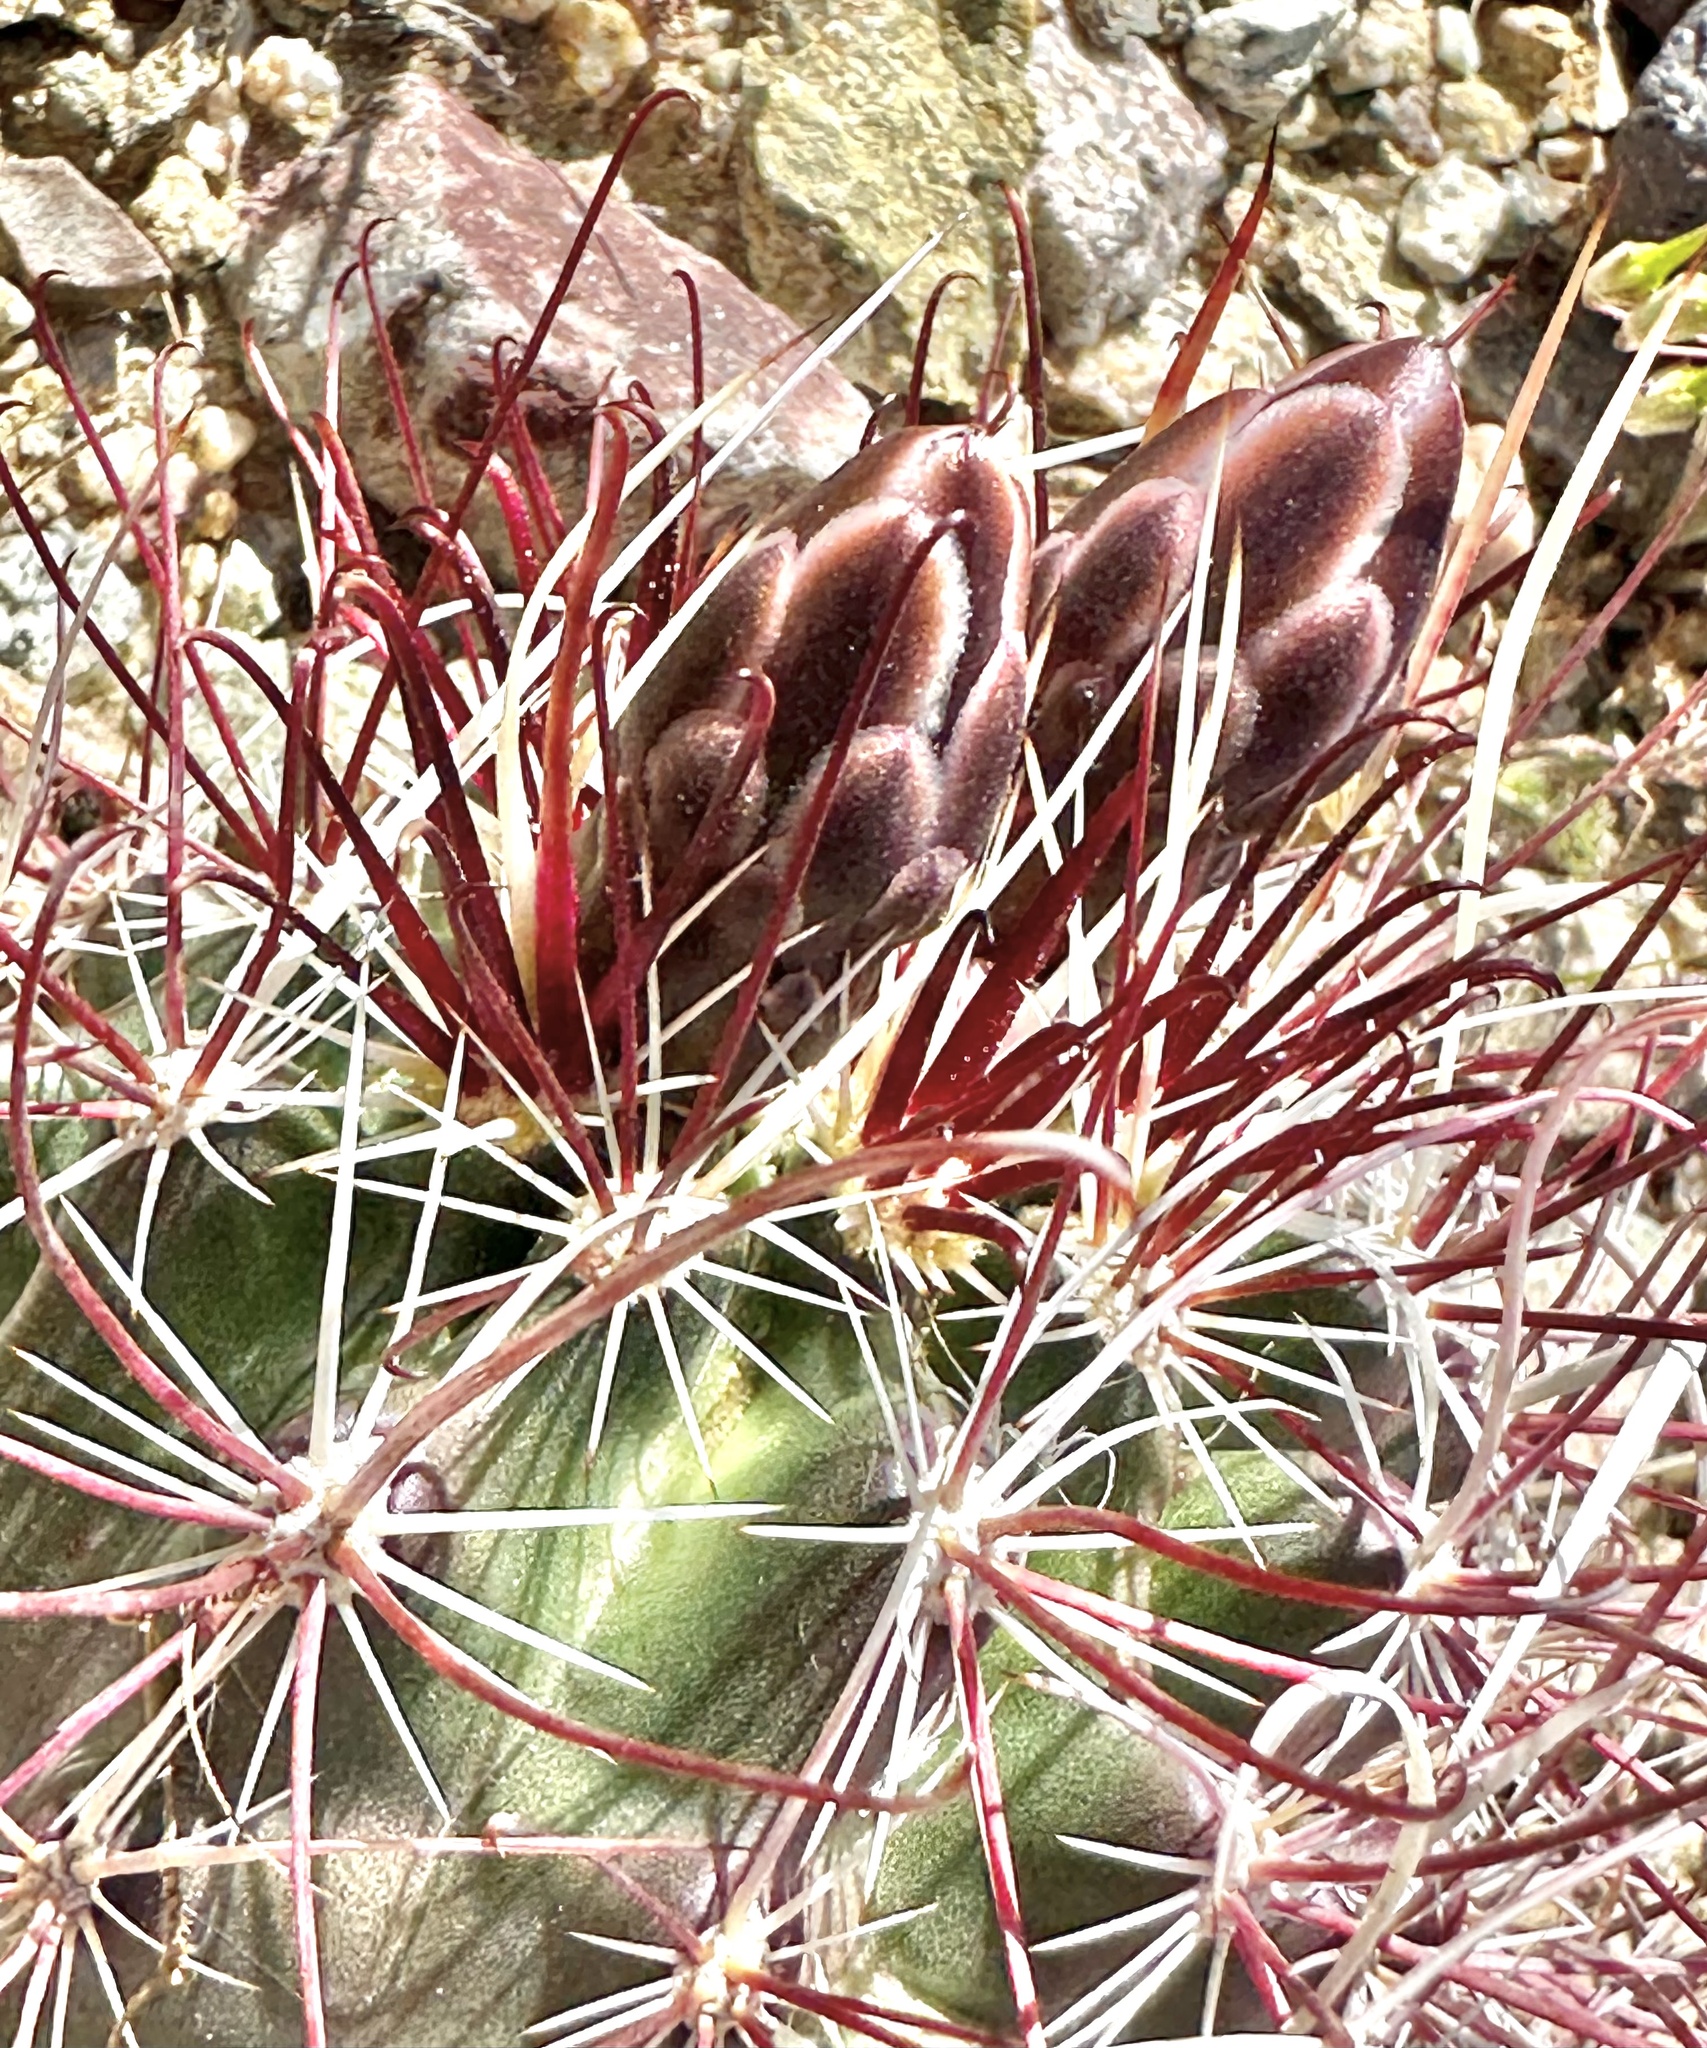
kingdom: Plantae
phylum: Tracheophyta
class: Magnoliopsida
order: Caryophyllales
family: Cactaceae
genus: Sclerocactus
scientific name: Sclerocactus polyancistrus
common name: Mohave fishhook cactus
